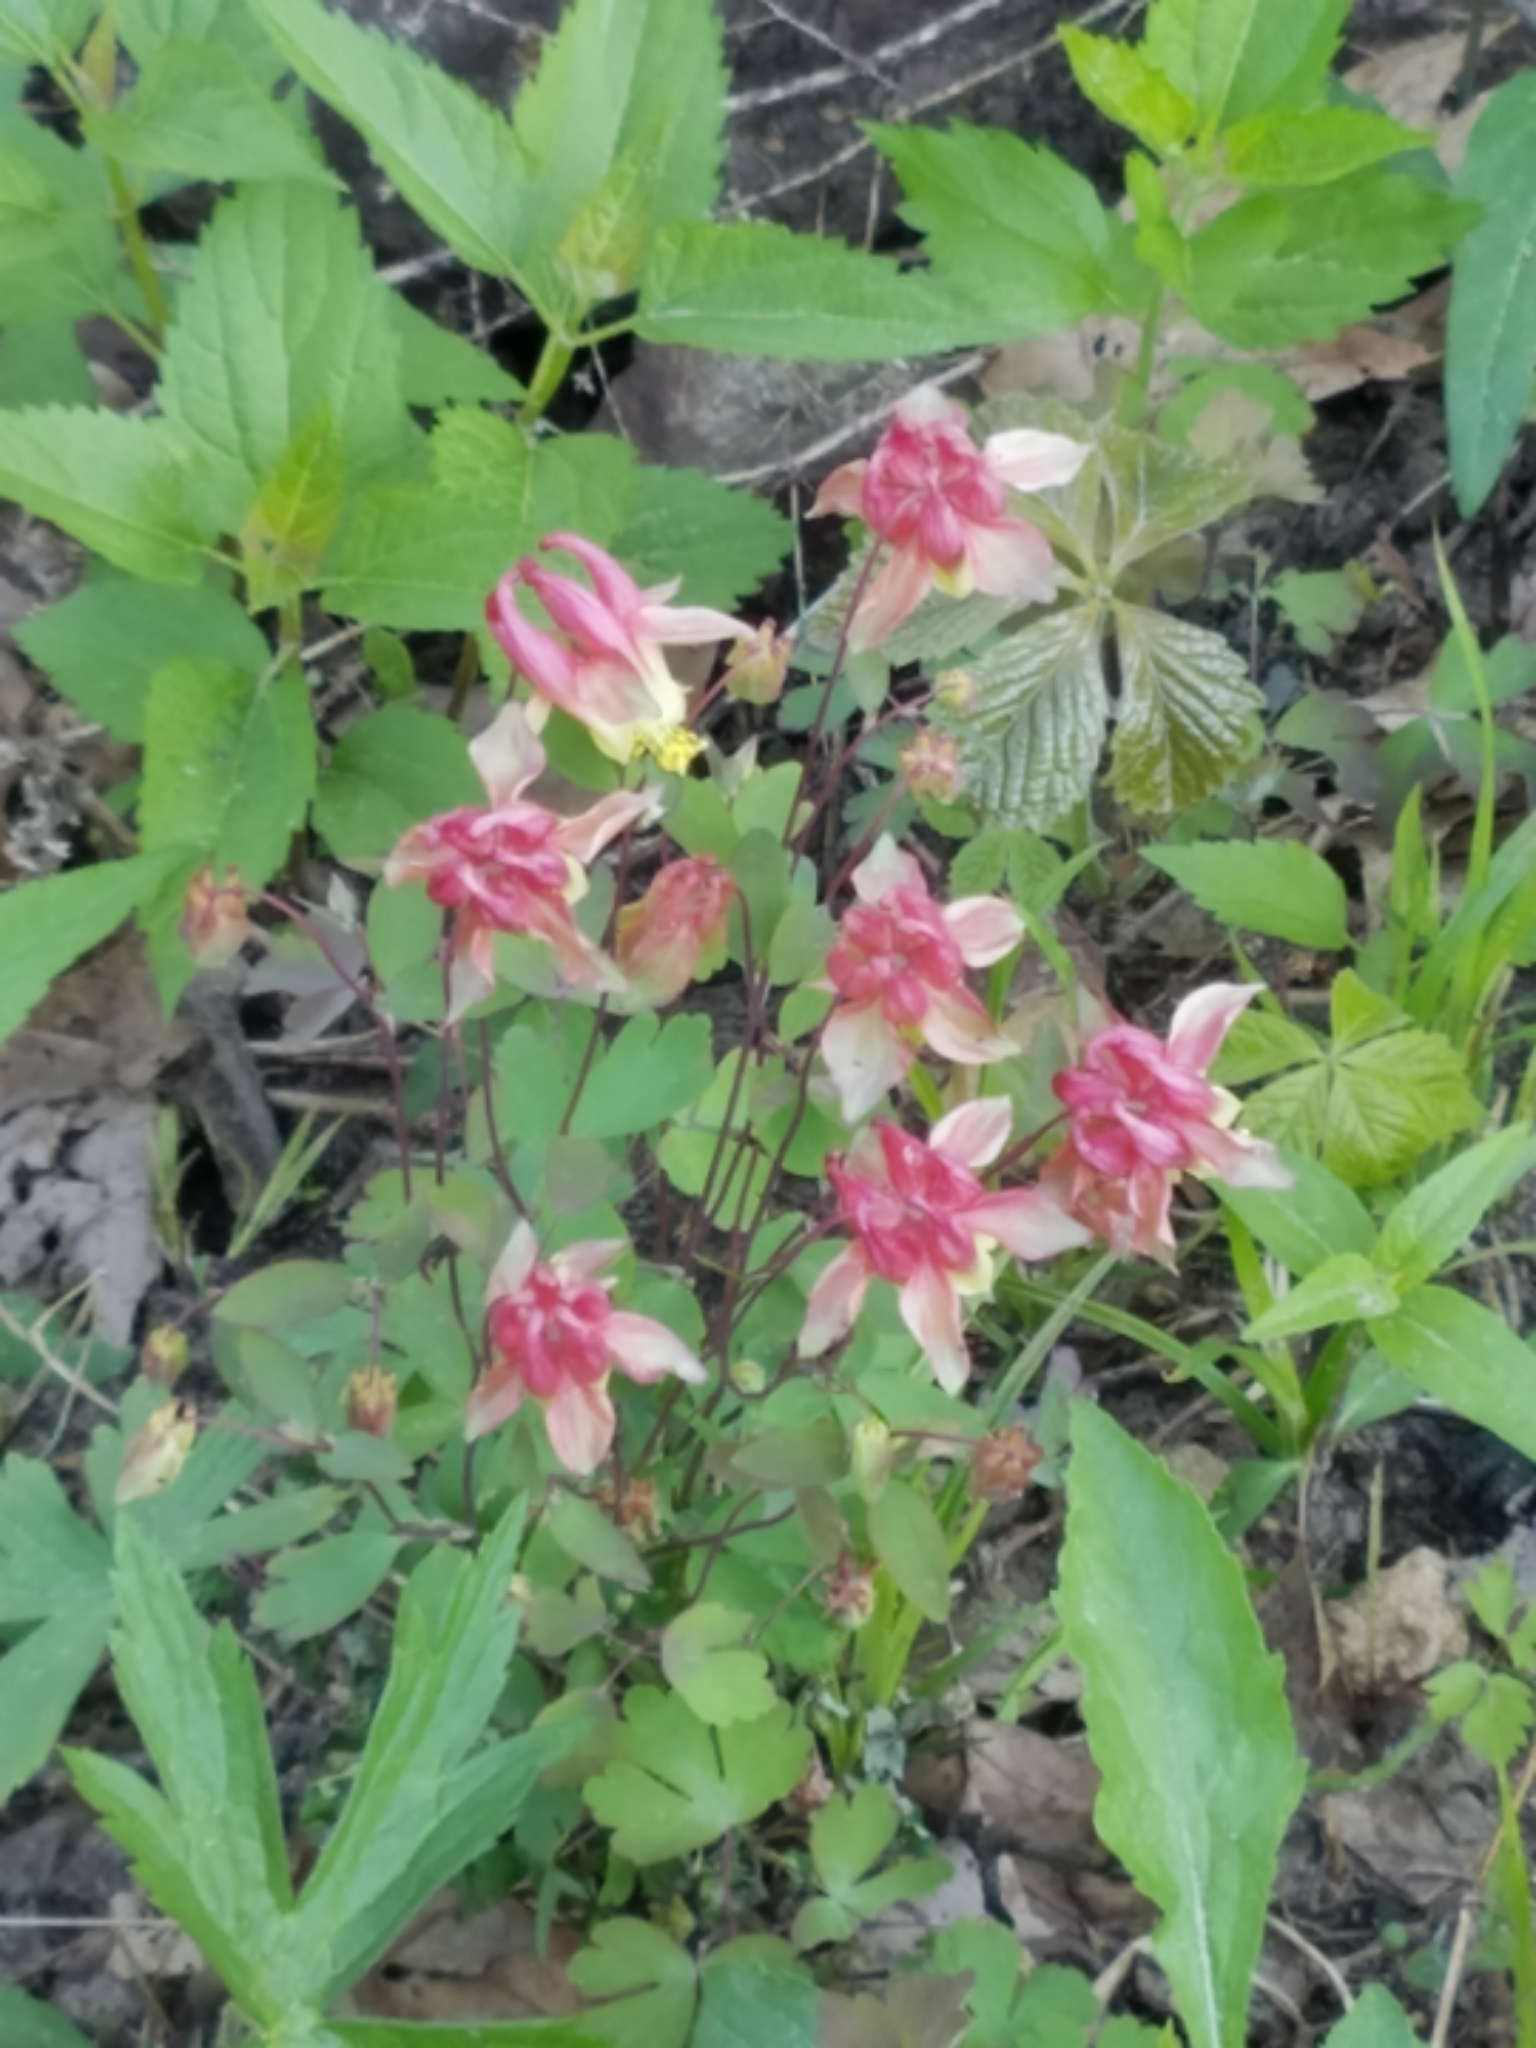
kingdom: Plantae
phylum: Tracheophyta
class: Magnoliopsida
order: Ranunculales
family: Ranunculaceae
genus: Aquilegia
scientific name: Aquilegia canadensis
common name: American columbine
